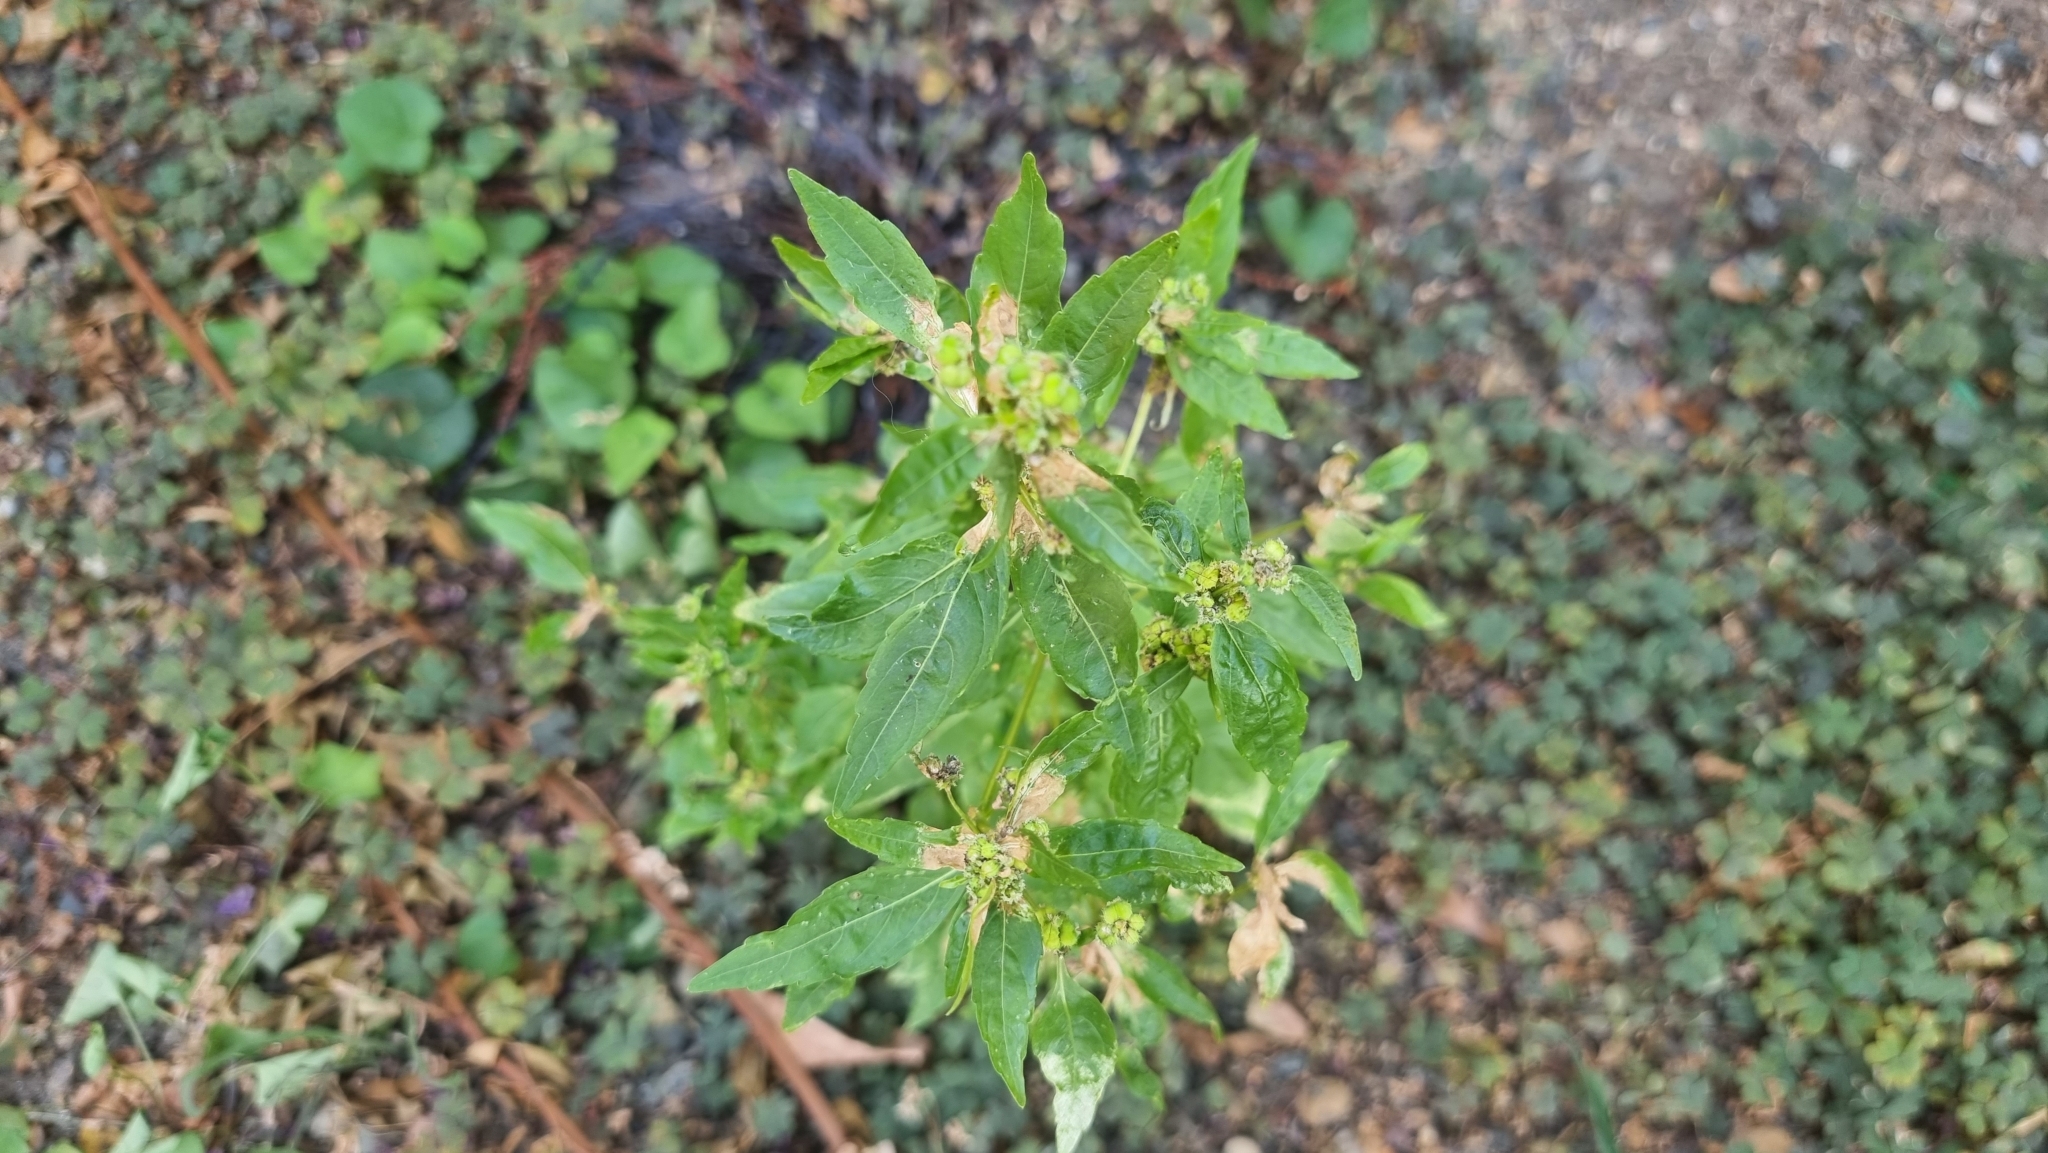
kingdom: Plantae
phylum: Tracheophyta
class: Magnoliopsida
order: Malpighiales
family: Euphorbiaceae
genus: Mercurialis
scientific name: Mercurialis annua
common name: Annual mercury
